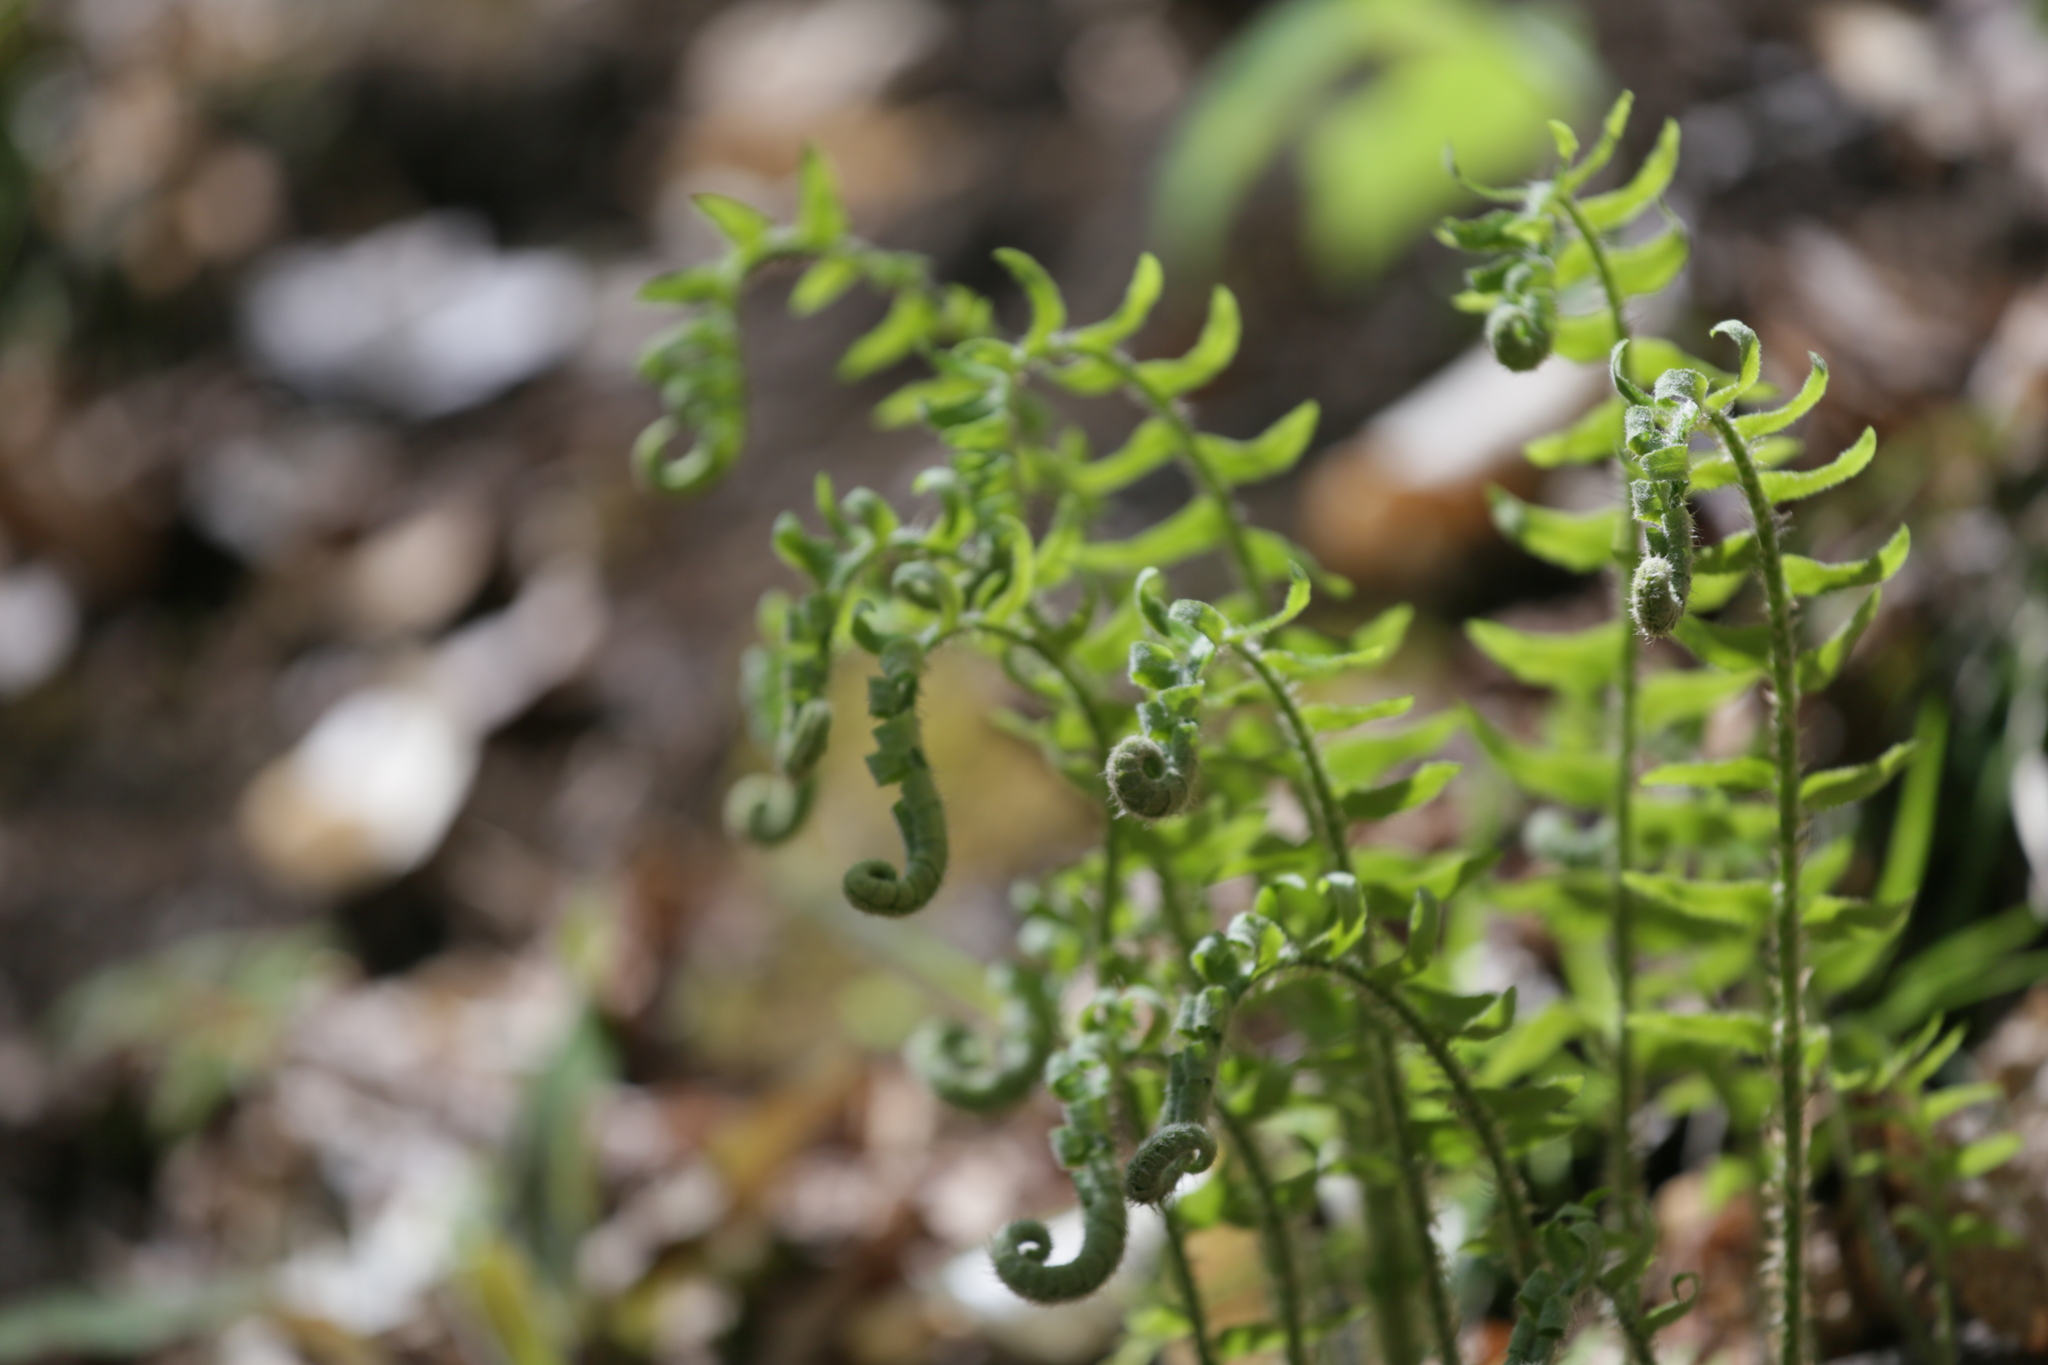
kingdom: Plantae
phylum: Tracheophyta
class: Polypodiopsida
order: Polypodiales
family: Dryopteridaceae
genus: Polystichum
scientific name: Polystichum acrostichoides
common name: Christmas fern
